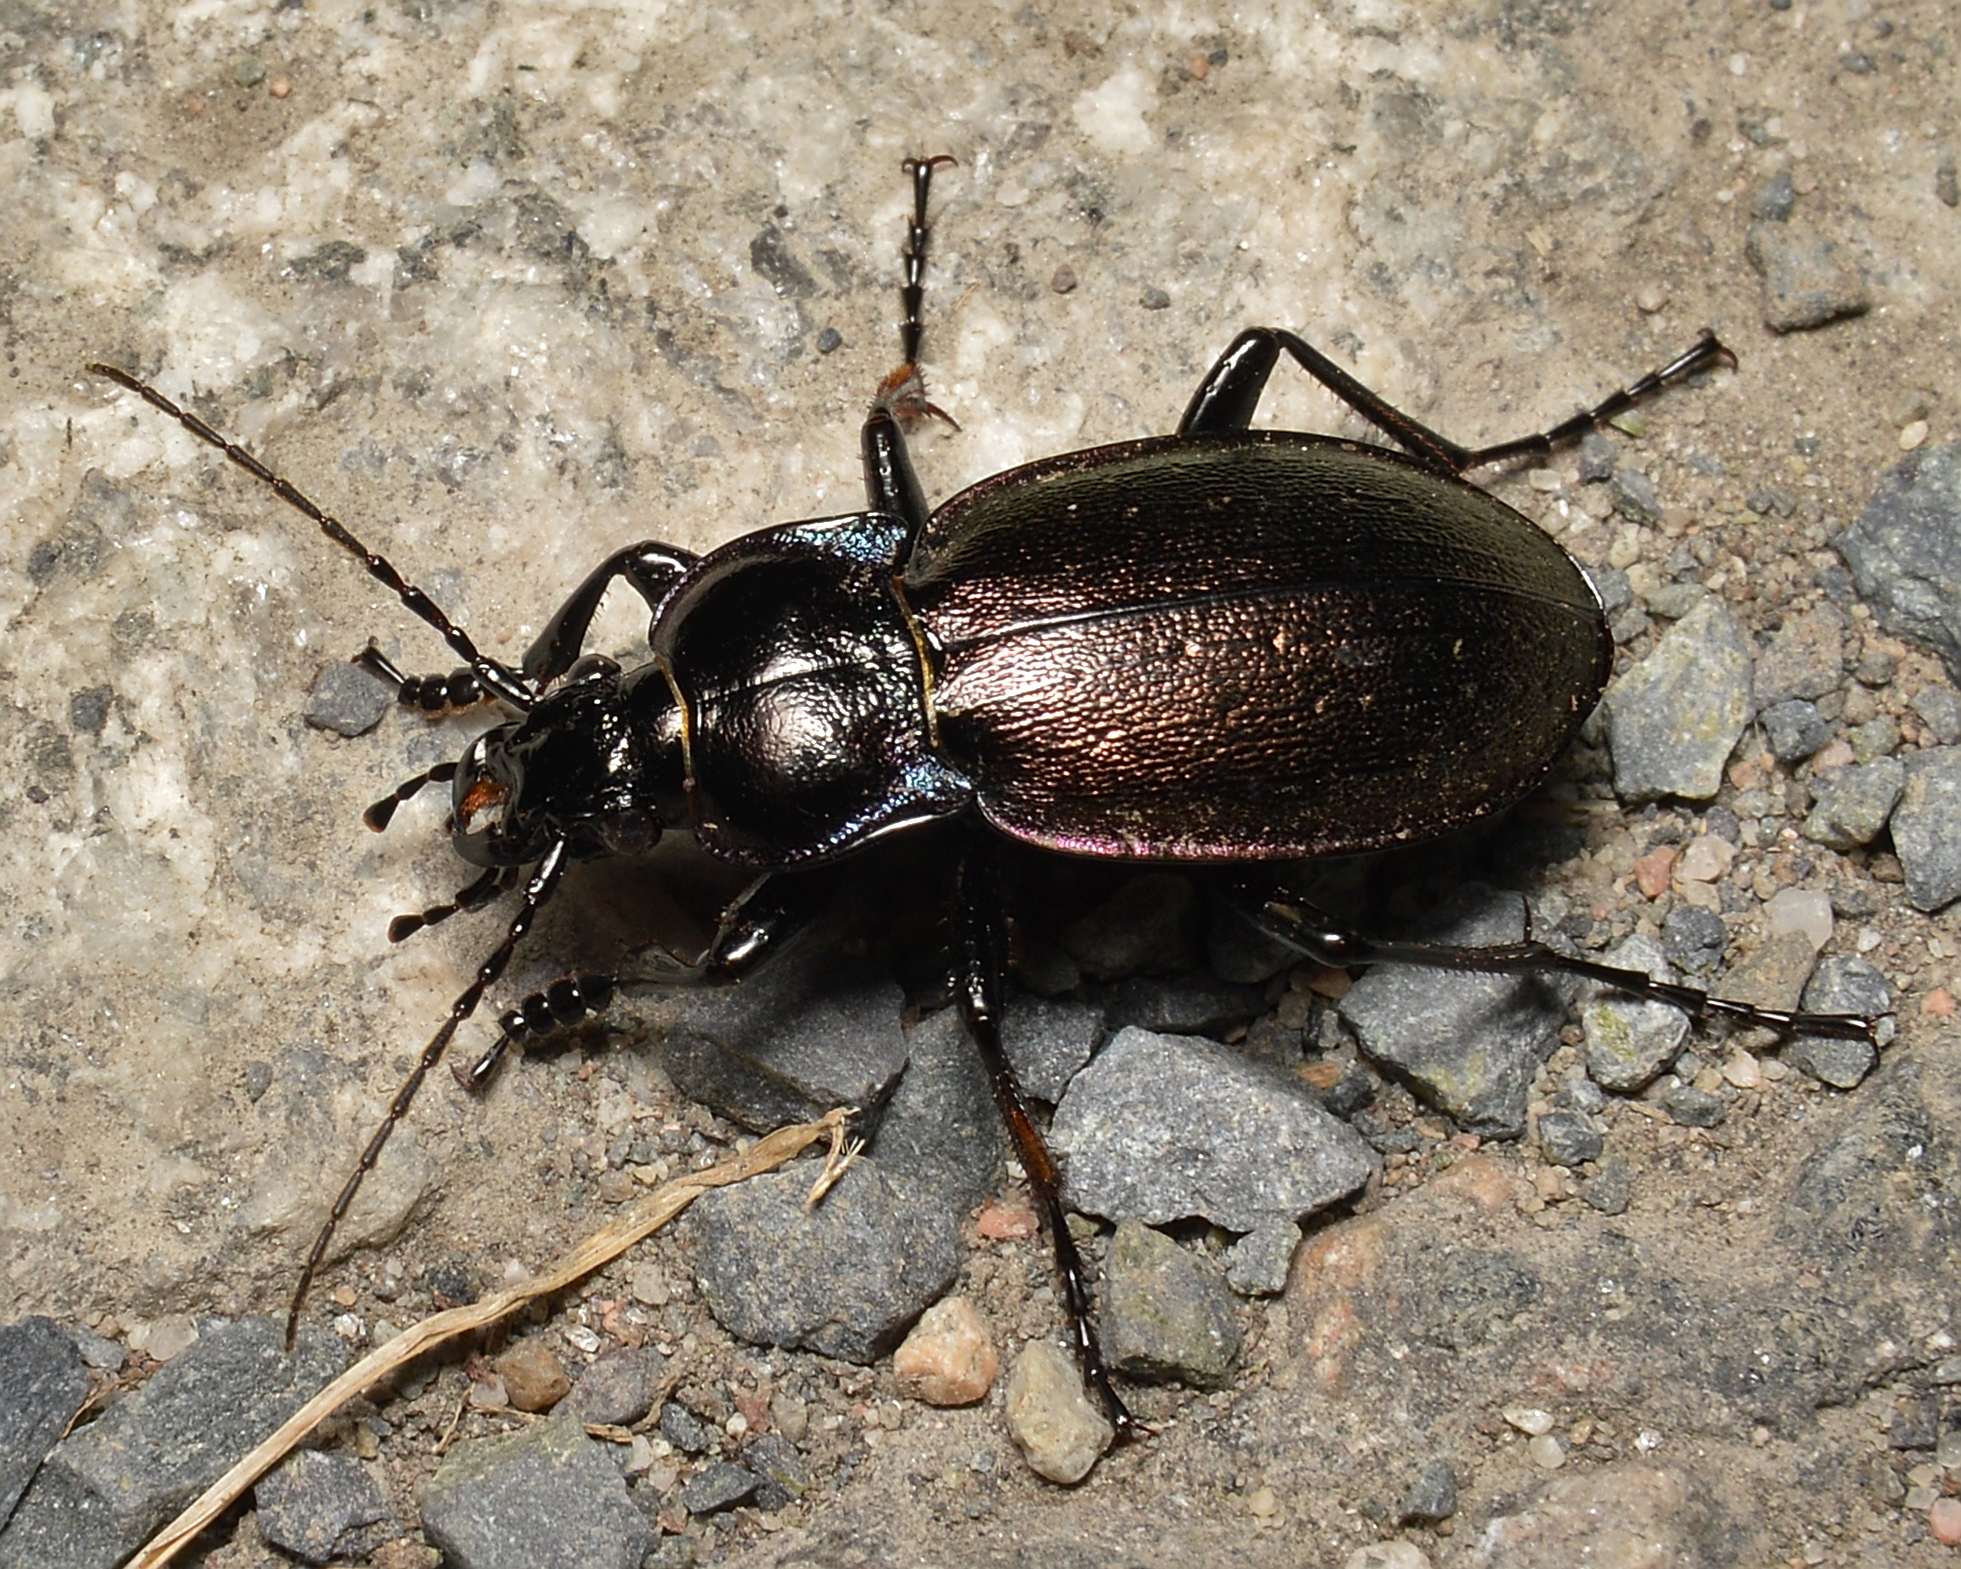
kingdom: Animalia
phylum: Arthropoda
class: Insecta
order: Coleoptera
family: Carabidae
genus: Carabus
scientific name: Carabus nemoralis
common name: European ground beetle
